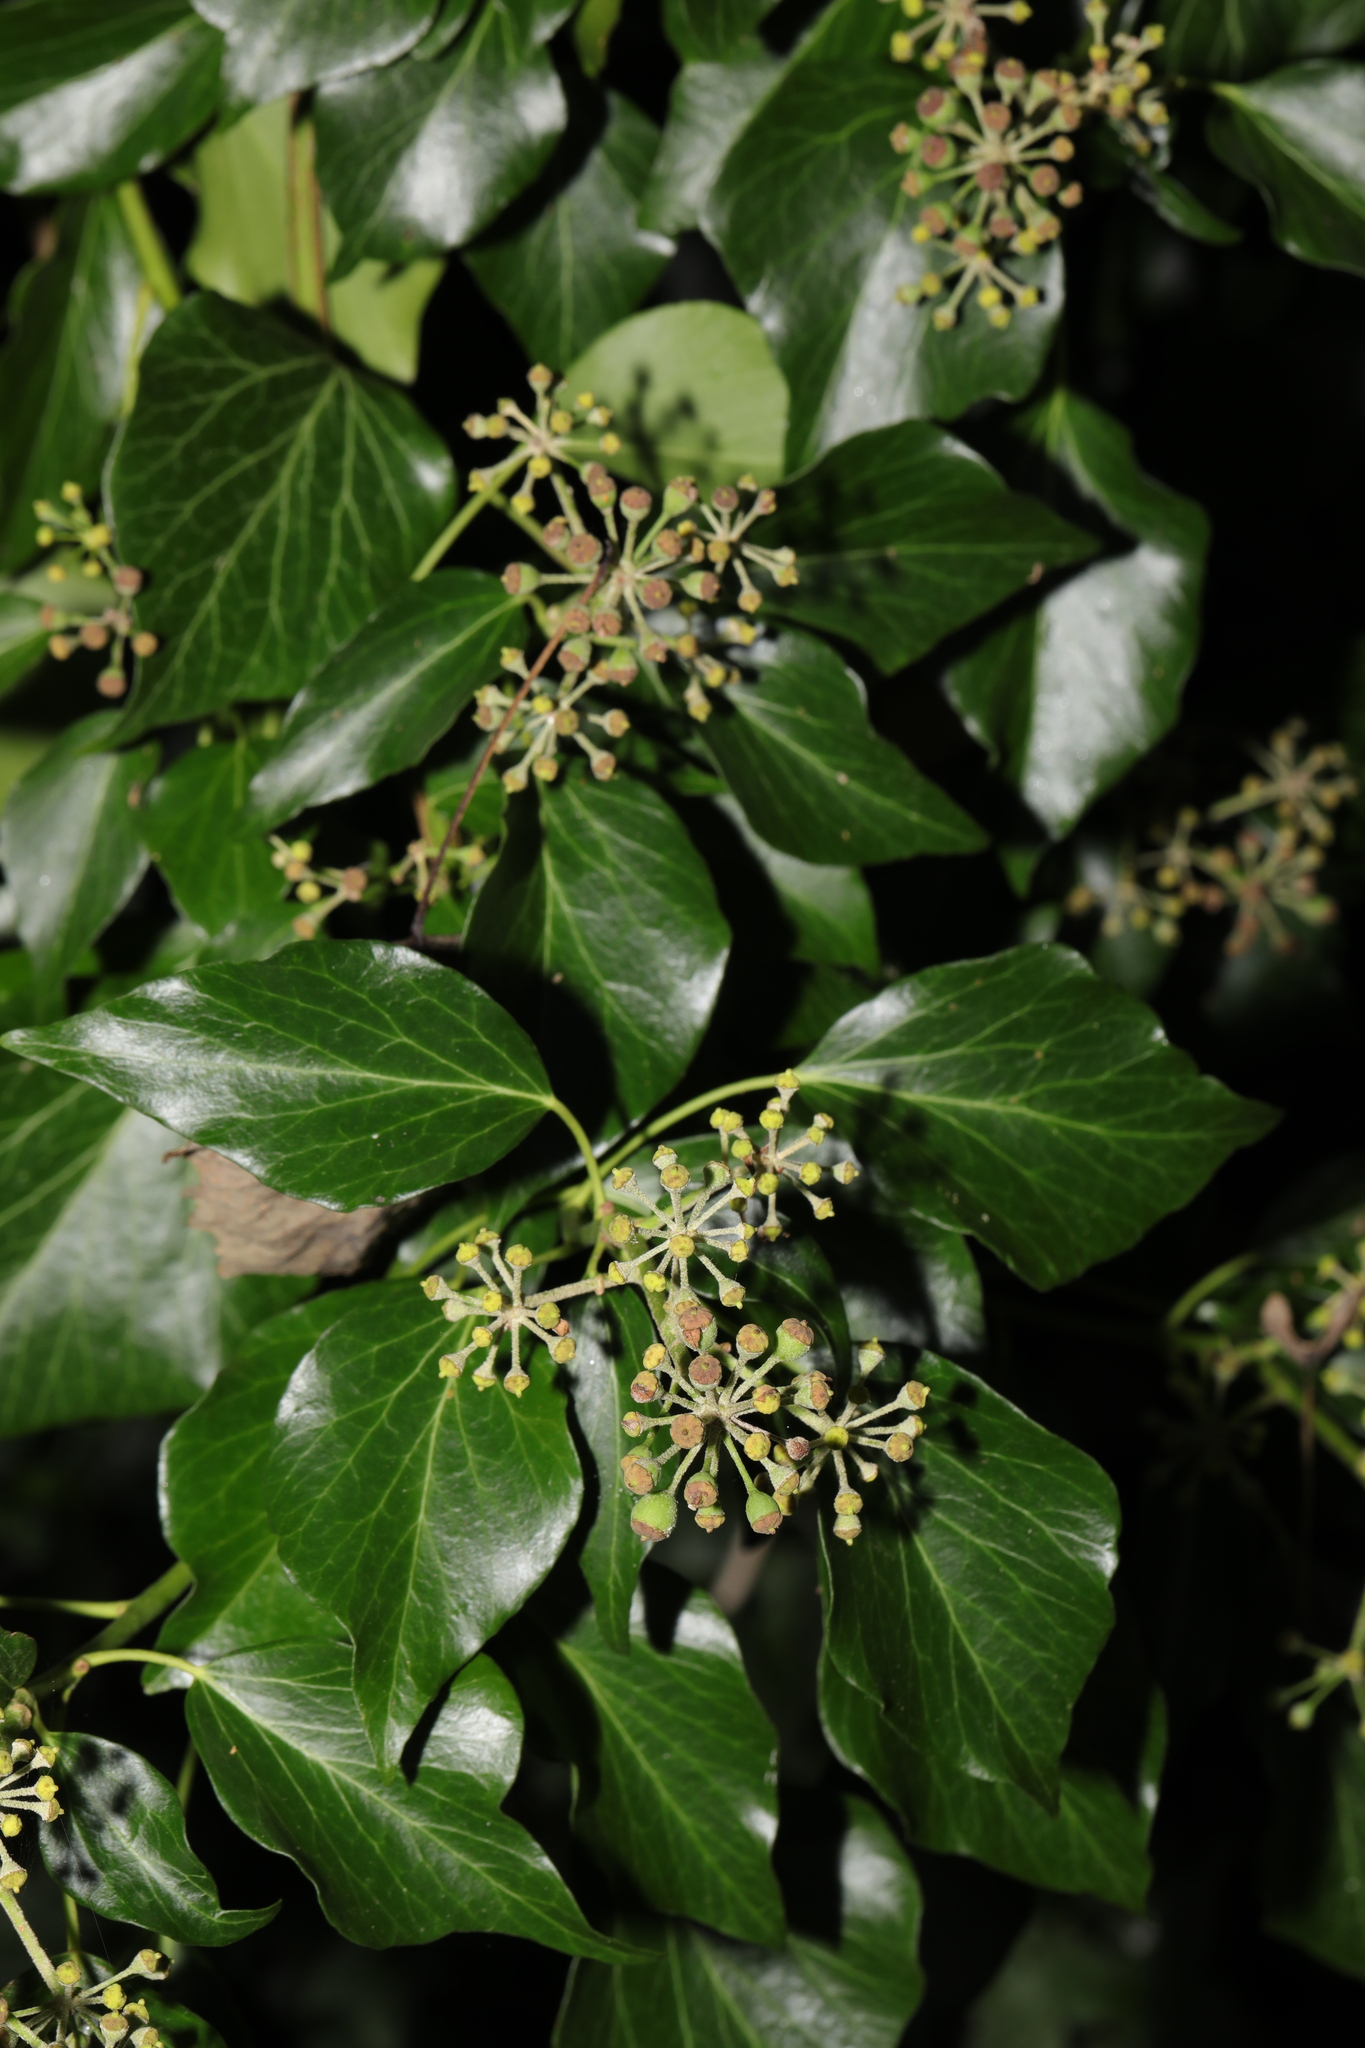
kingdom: Plantae
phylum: Tracheophyta
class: Magnoliopsida
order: Apiales
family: Araliaceae
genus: Hedera
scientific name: Hedera helix
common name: Ivy
